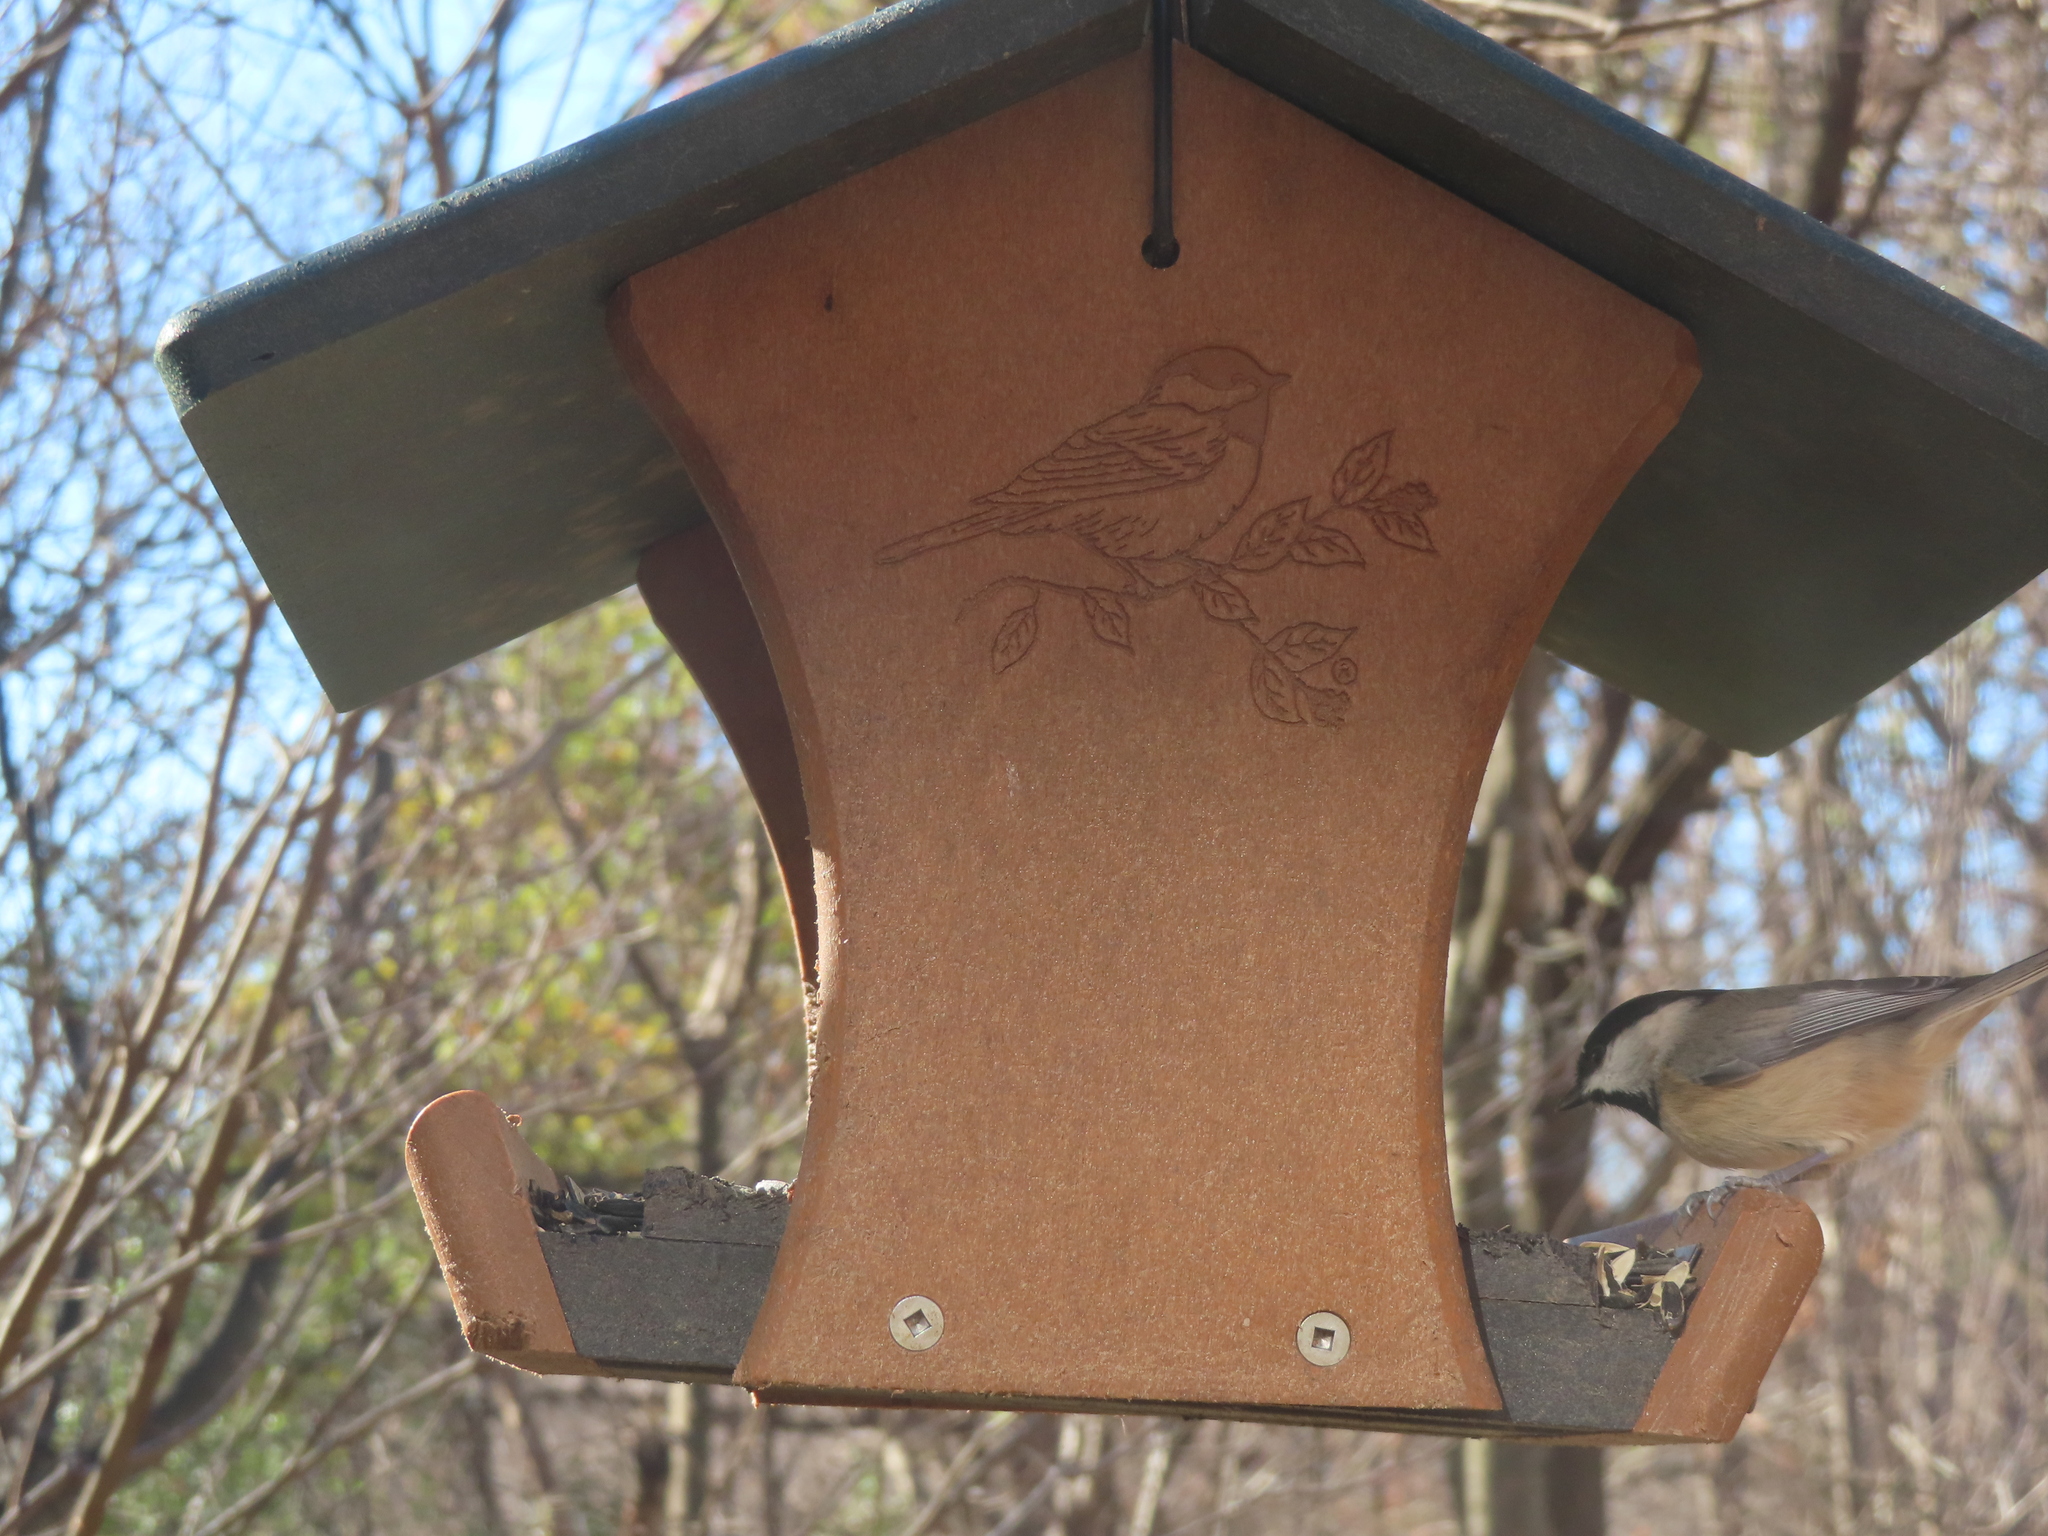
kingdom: Animalia
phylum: Chordata
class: Aves
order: Passeriformes
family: Paridae
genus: Poecile
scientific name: Poecile carolinensis
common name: Carolina chickadee
